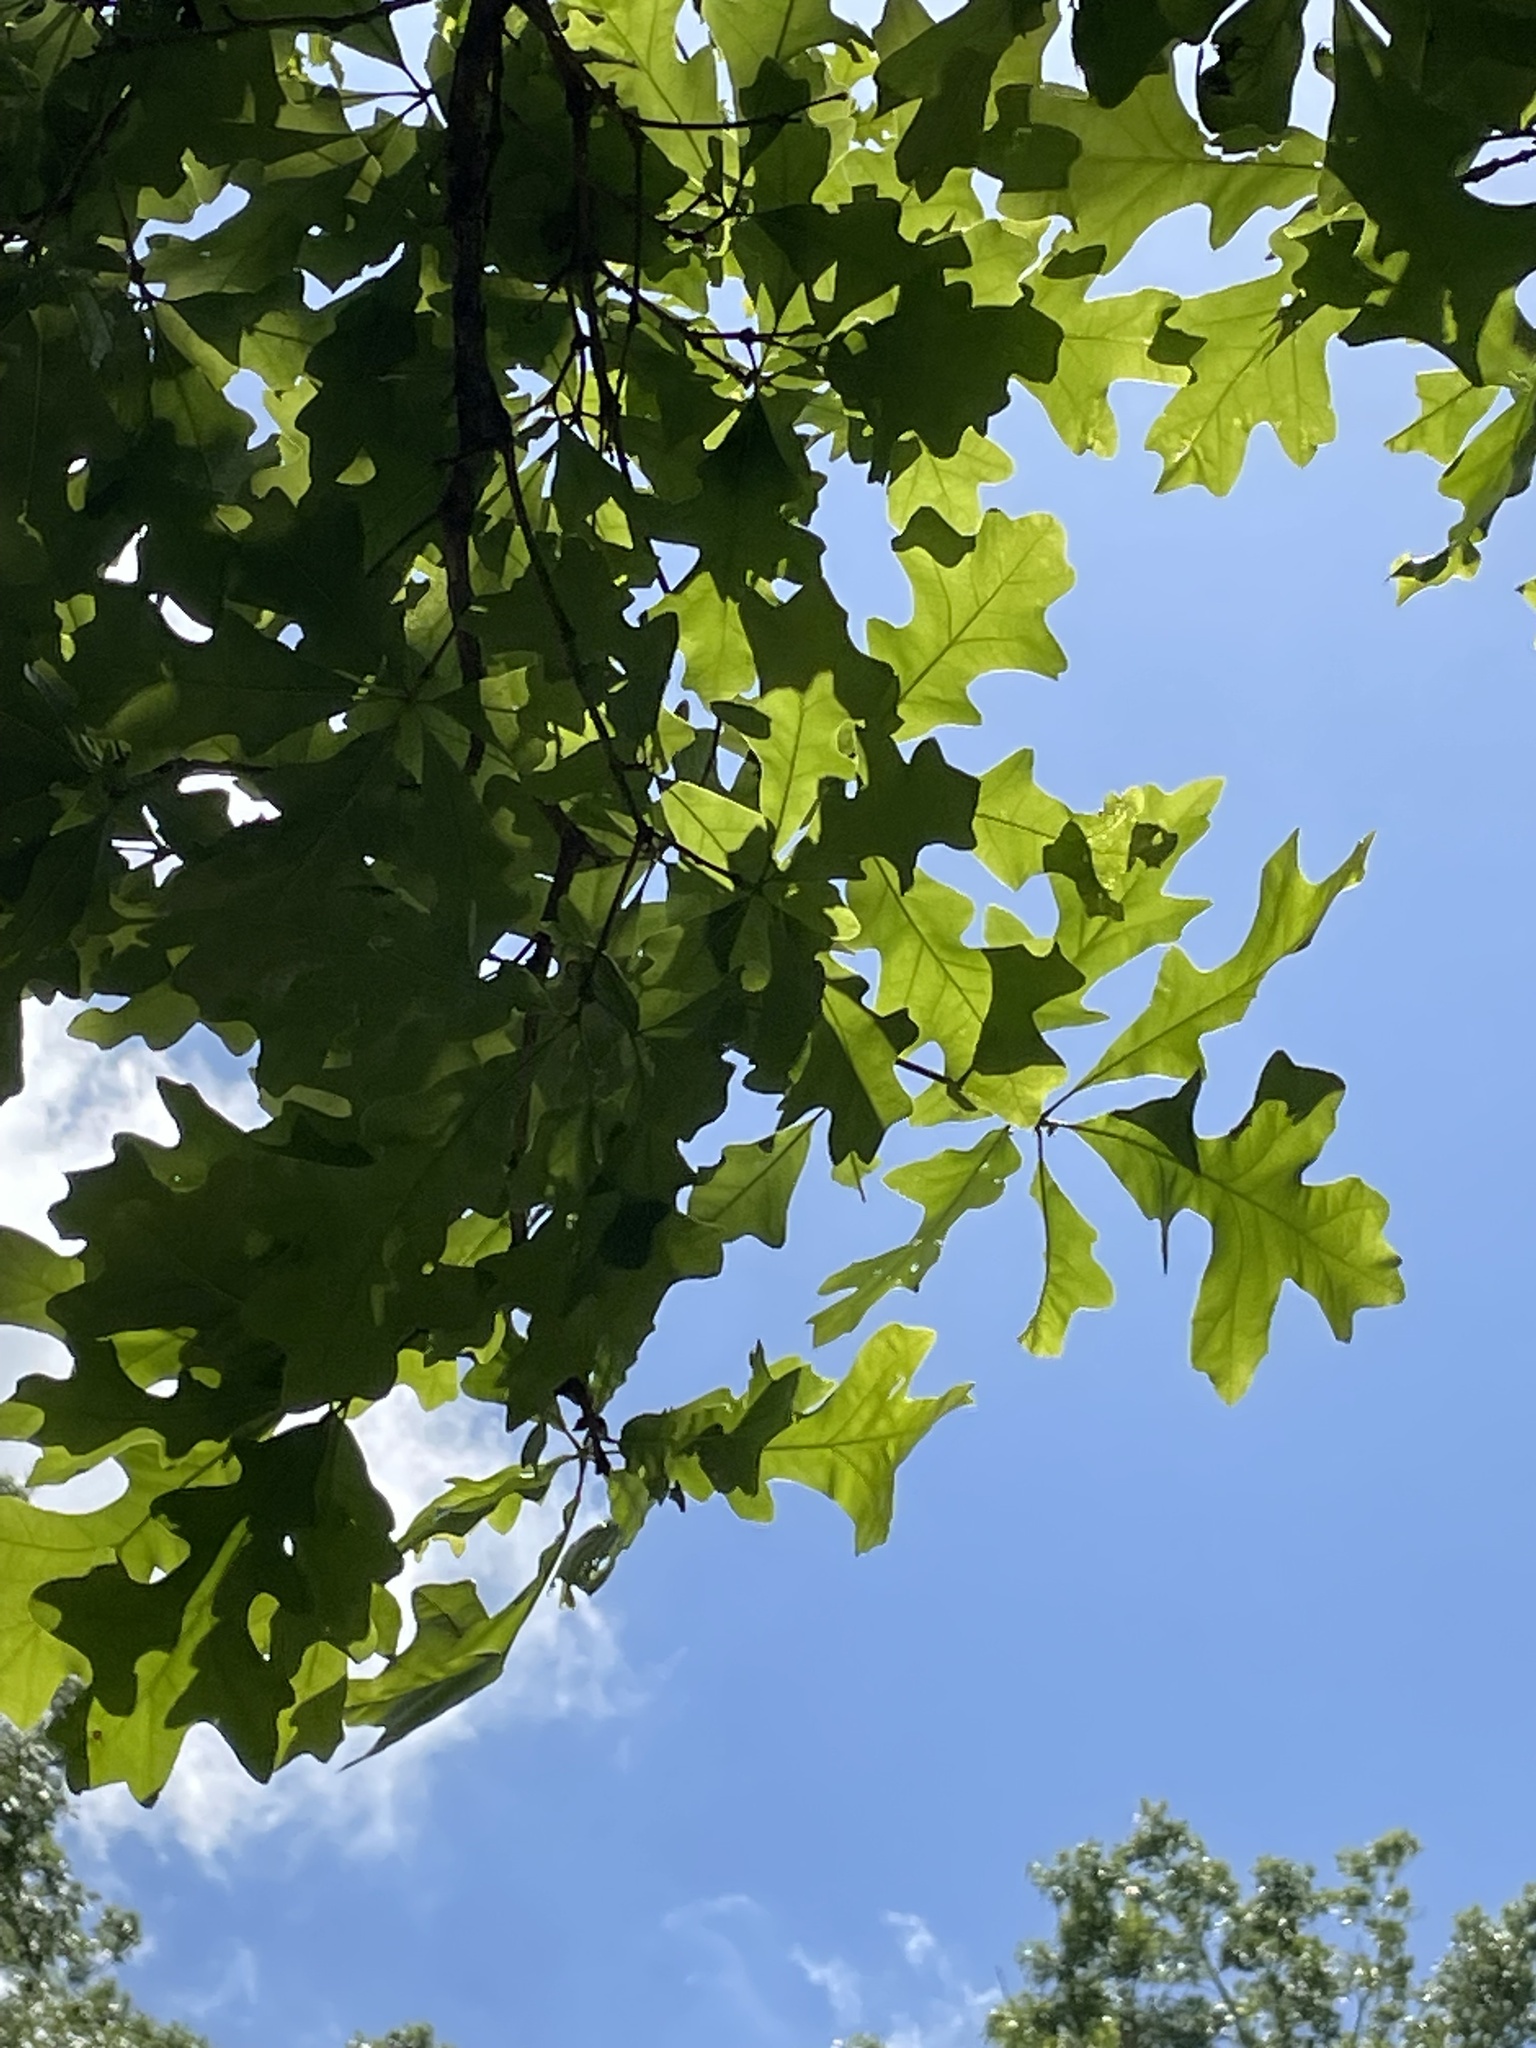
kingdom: Plantae
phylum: Tracheophyta
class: Magnoliopsida
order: Fagales
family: Fagaceae
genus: Quercus
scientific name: Quercus lyrata
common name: Overcup oak
